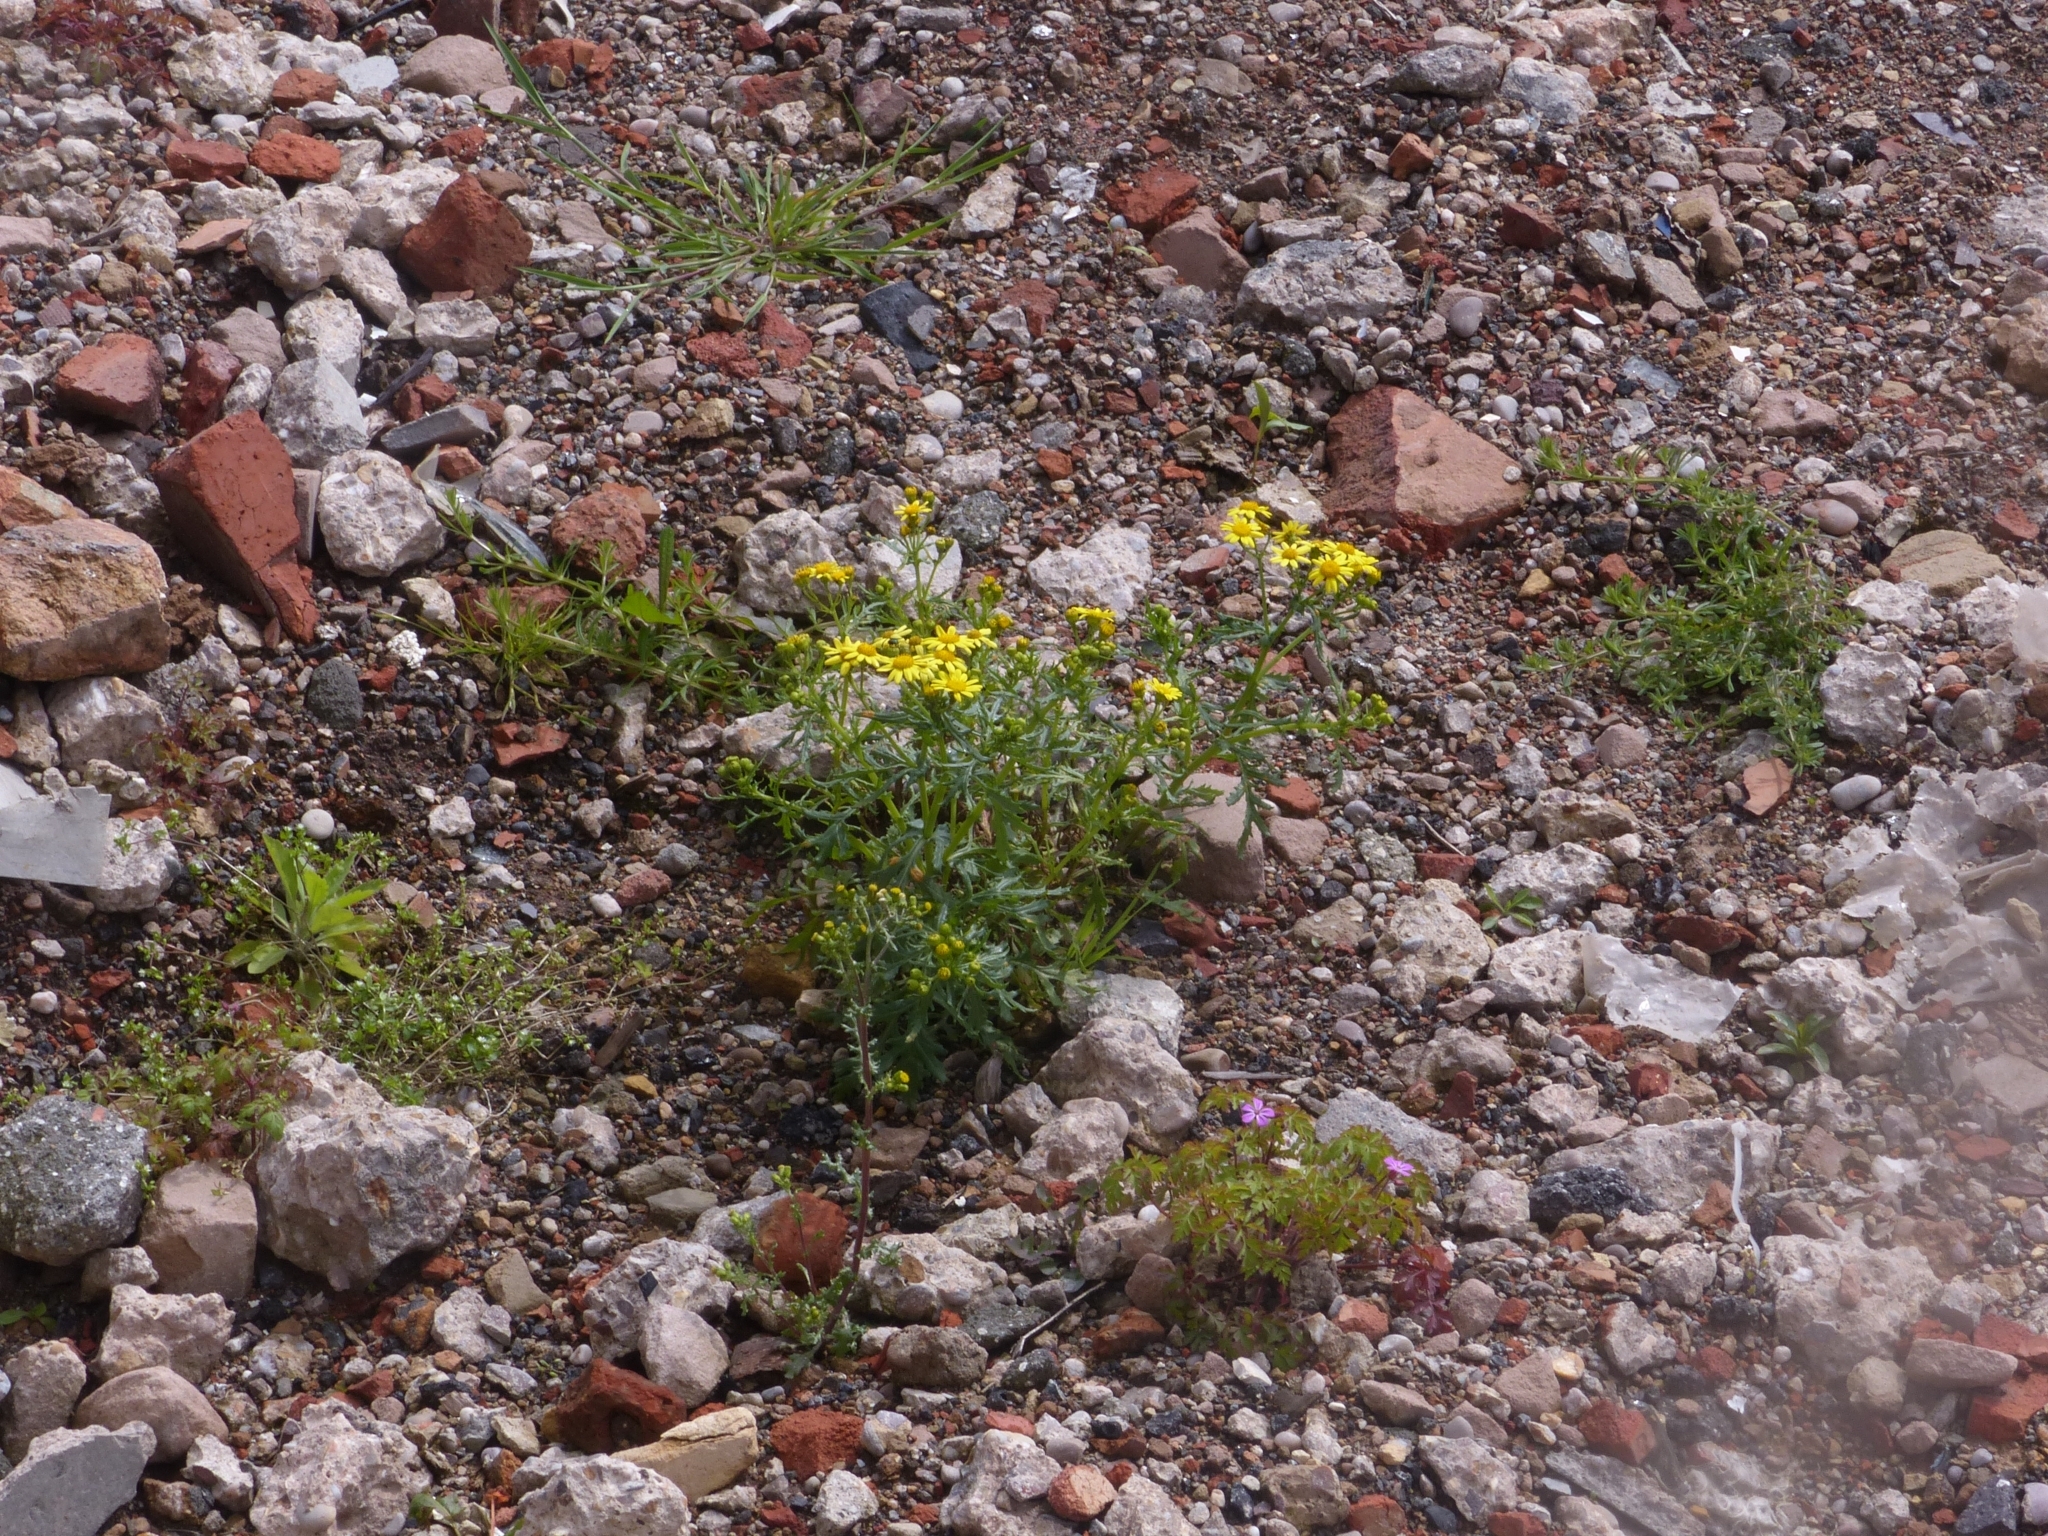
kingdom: Plantae
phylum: Tracheophyta
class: Magnoliopsida
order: Asterales
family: Asteraceae
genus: Senecio
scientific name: Senecio squalidus
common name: Oxford ragwort
